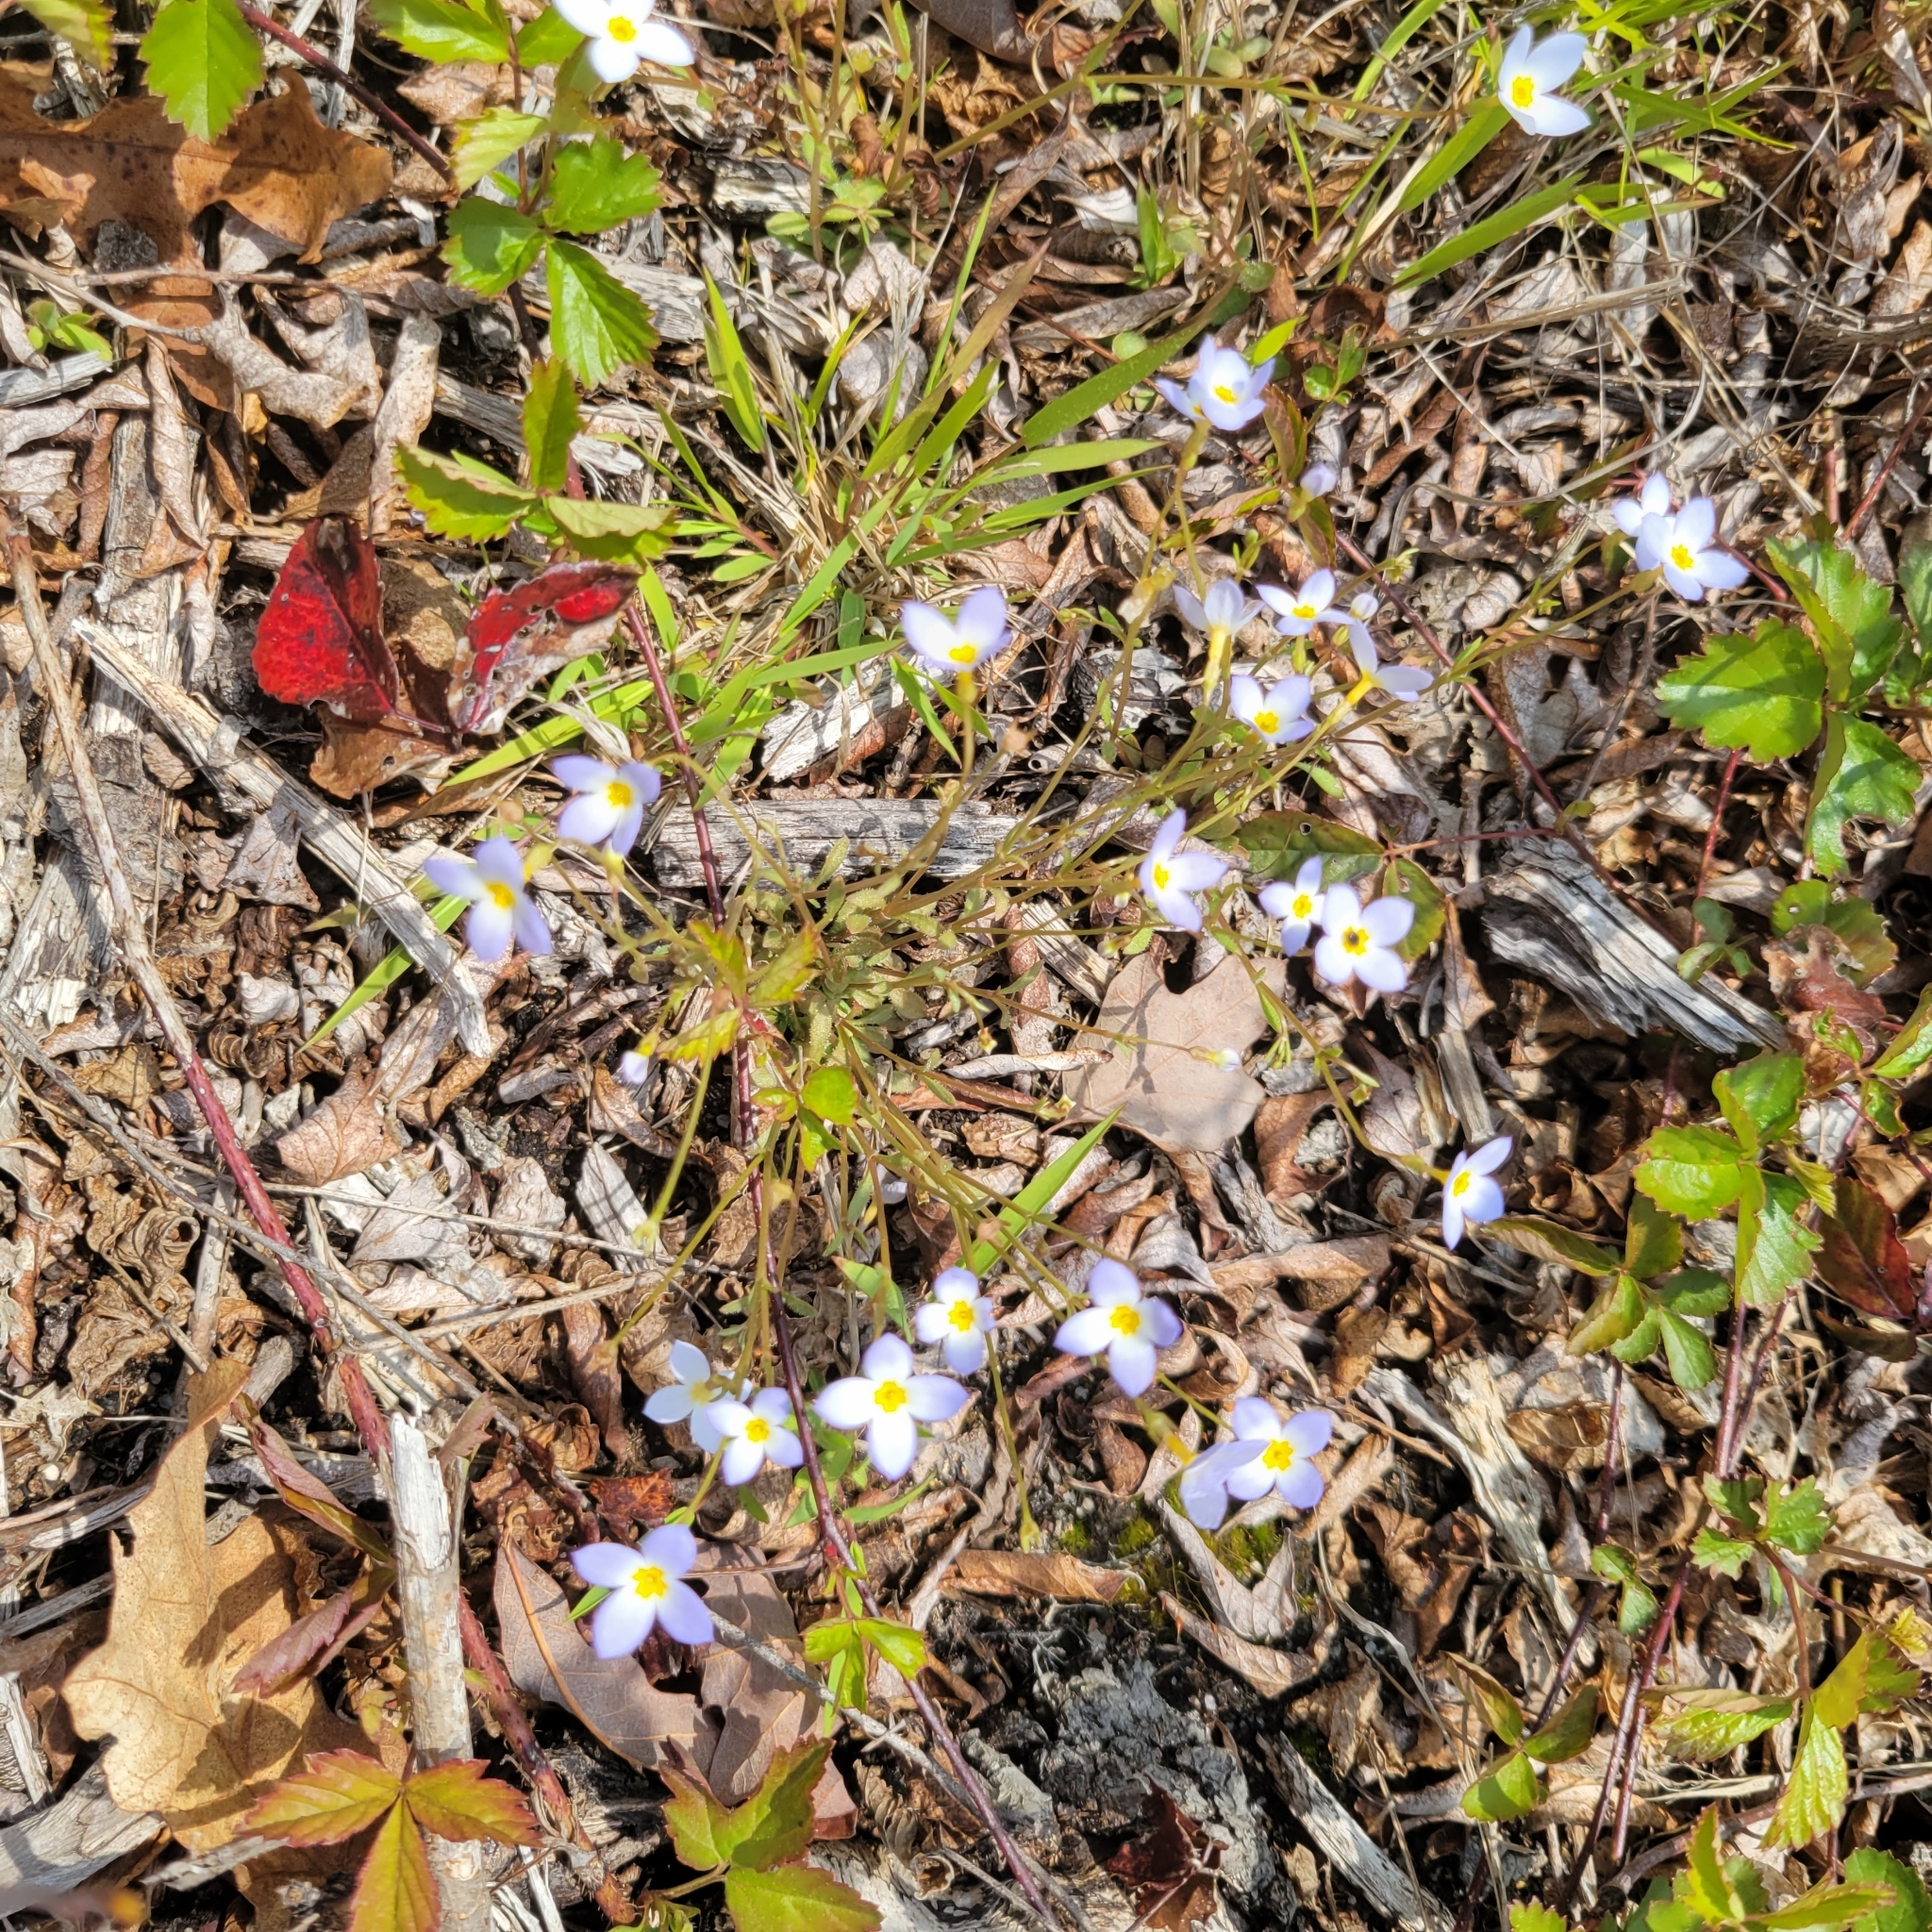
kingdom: Plantae
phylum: Tracheophyta
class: Magnoliopsida
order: Gentianales
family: Rubiaceae
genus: Houstonia
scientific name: Houstonia caerulea
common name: Bluets
